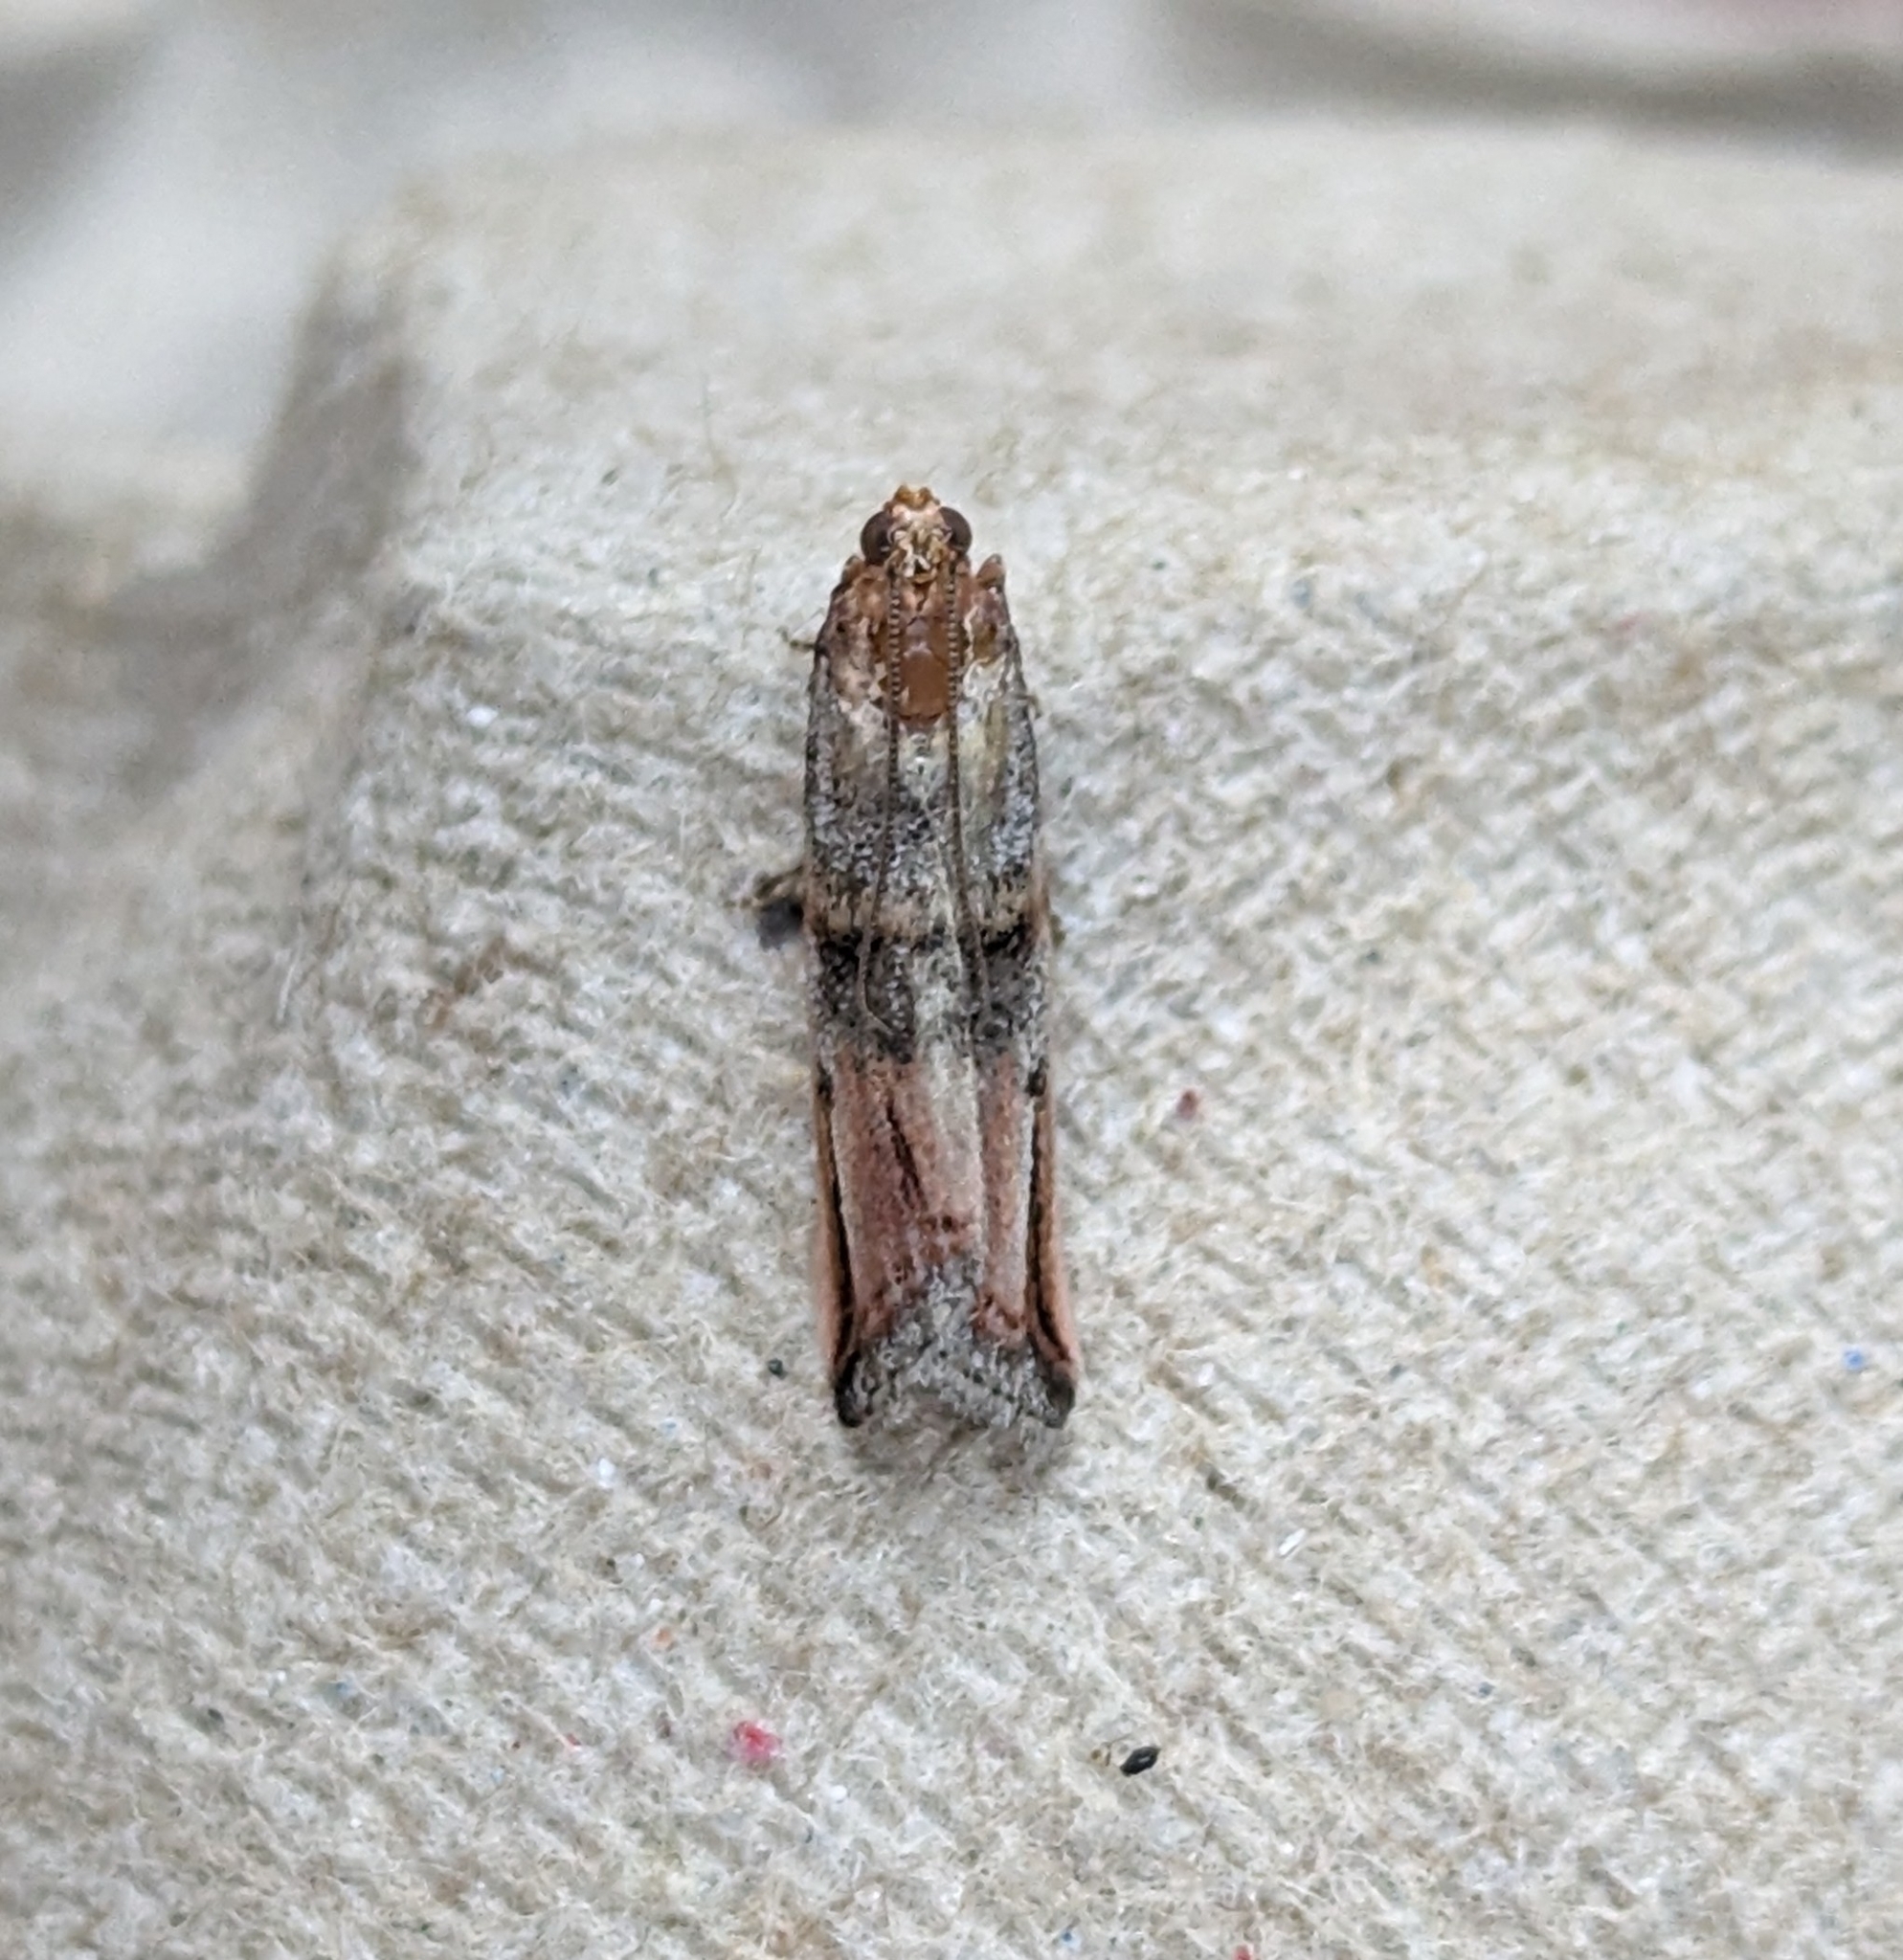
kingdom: Animalia
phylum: Arthropoda
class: Insecta
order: Lepidoptera
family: Pyralidae
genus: Dasypyga
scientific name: Dasypyga alternosquamella
